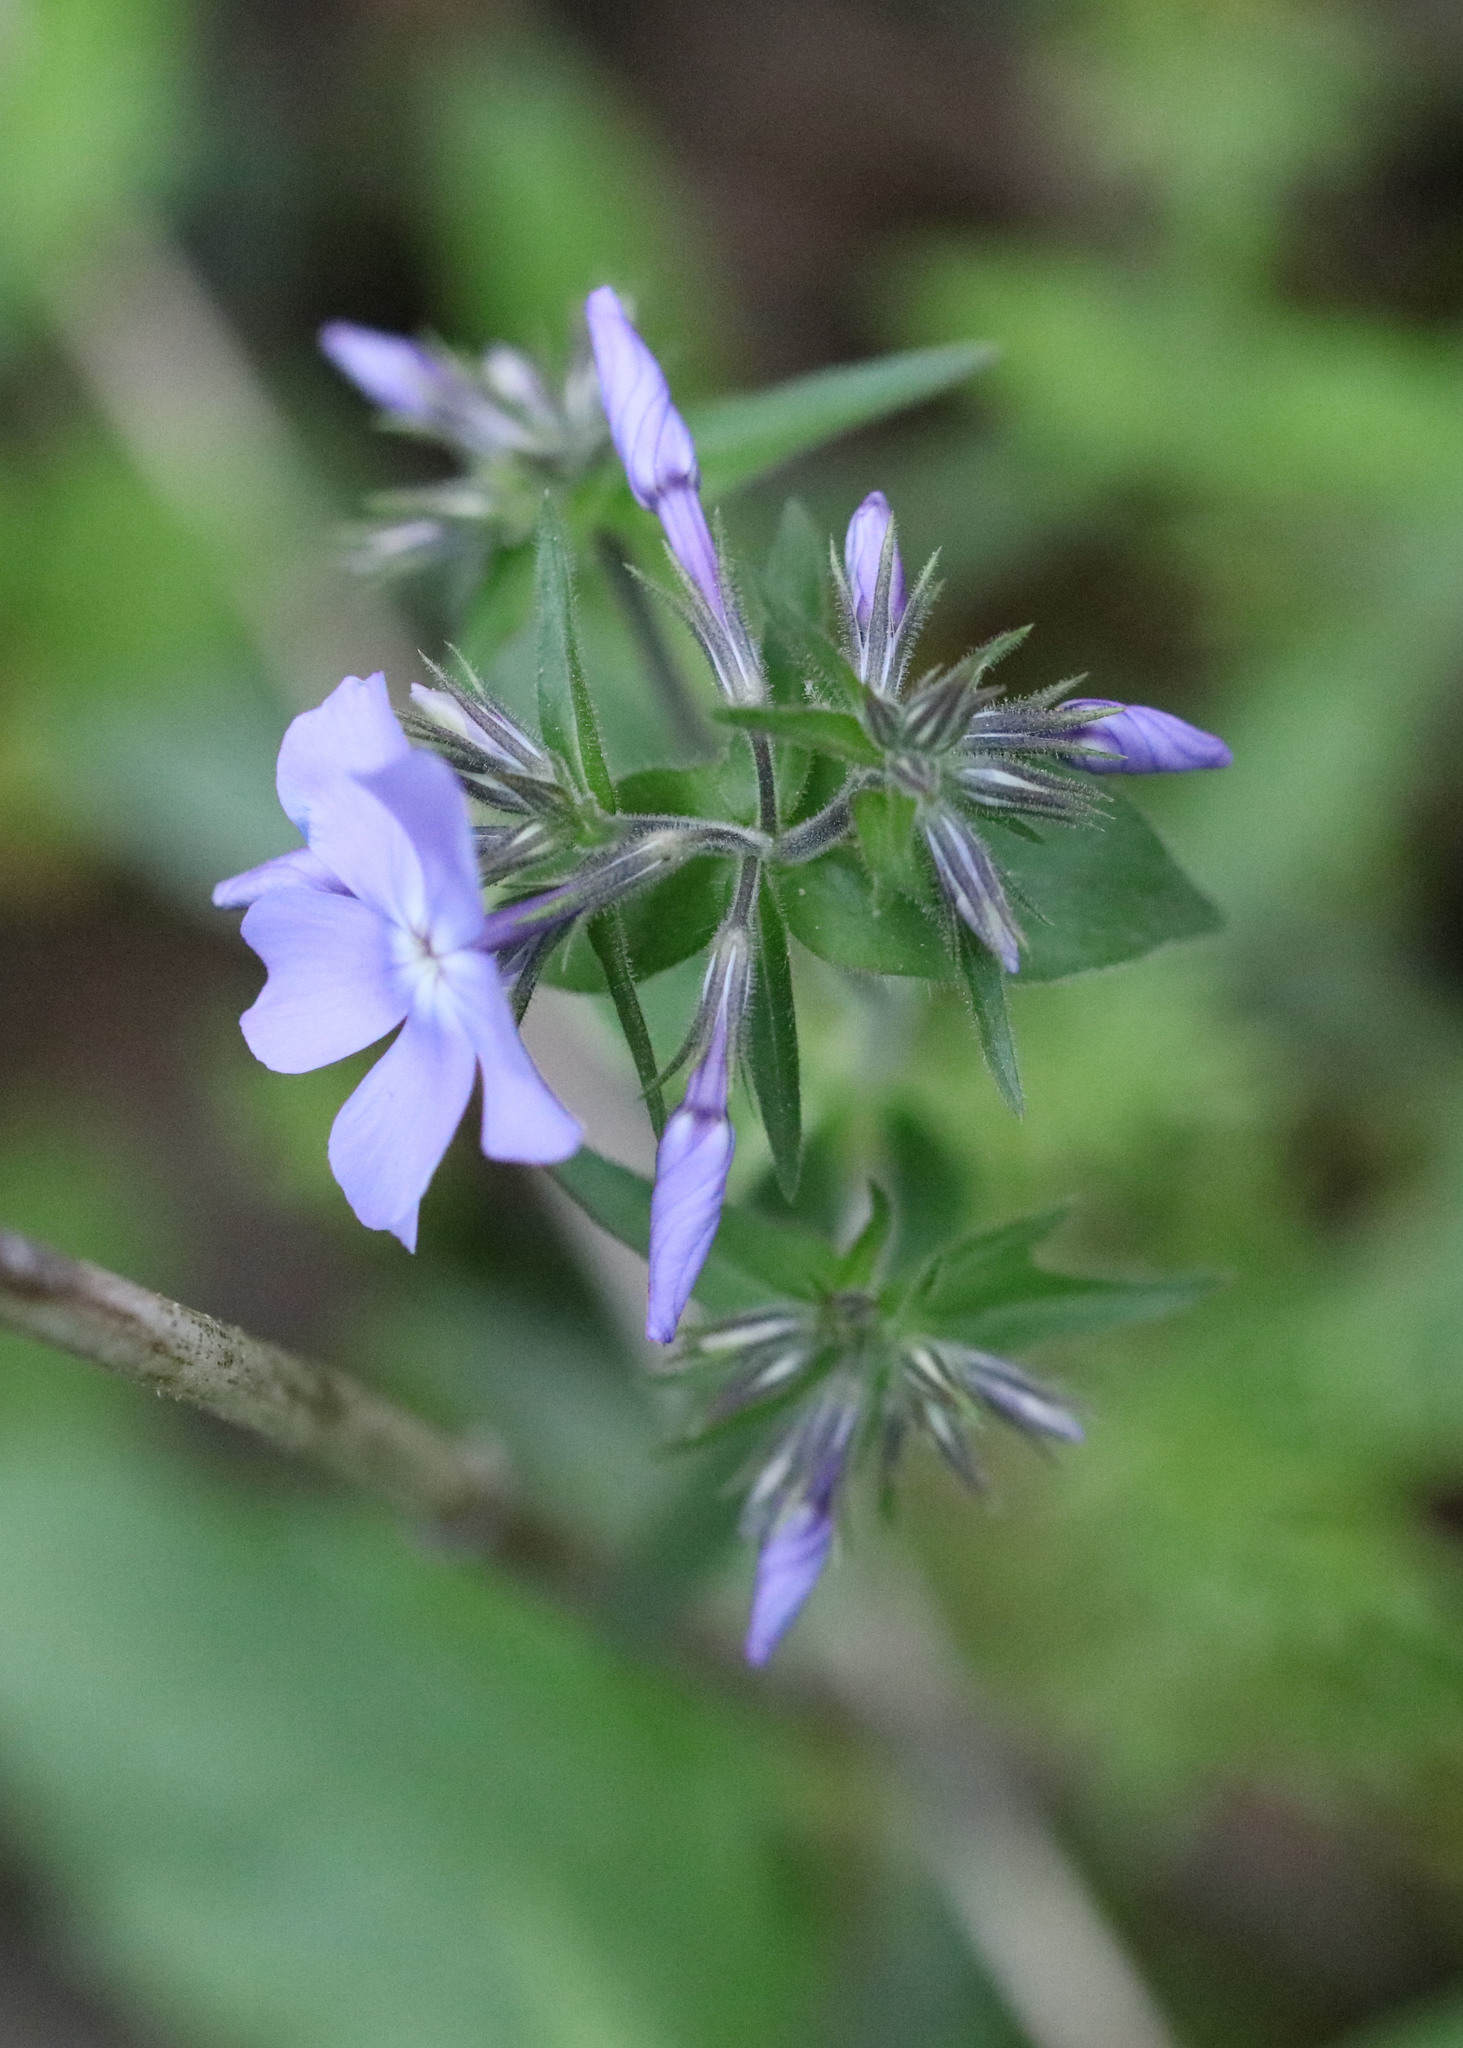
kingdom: Plantae
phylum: Tracheophyta
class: Magnoliopsida
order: Ericales
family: Polemoniaceae
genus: Phlox
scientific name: Phlox divaricata
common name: Blue phlox
